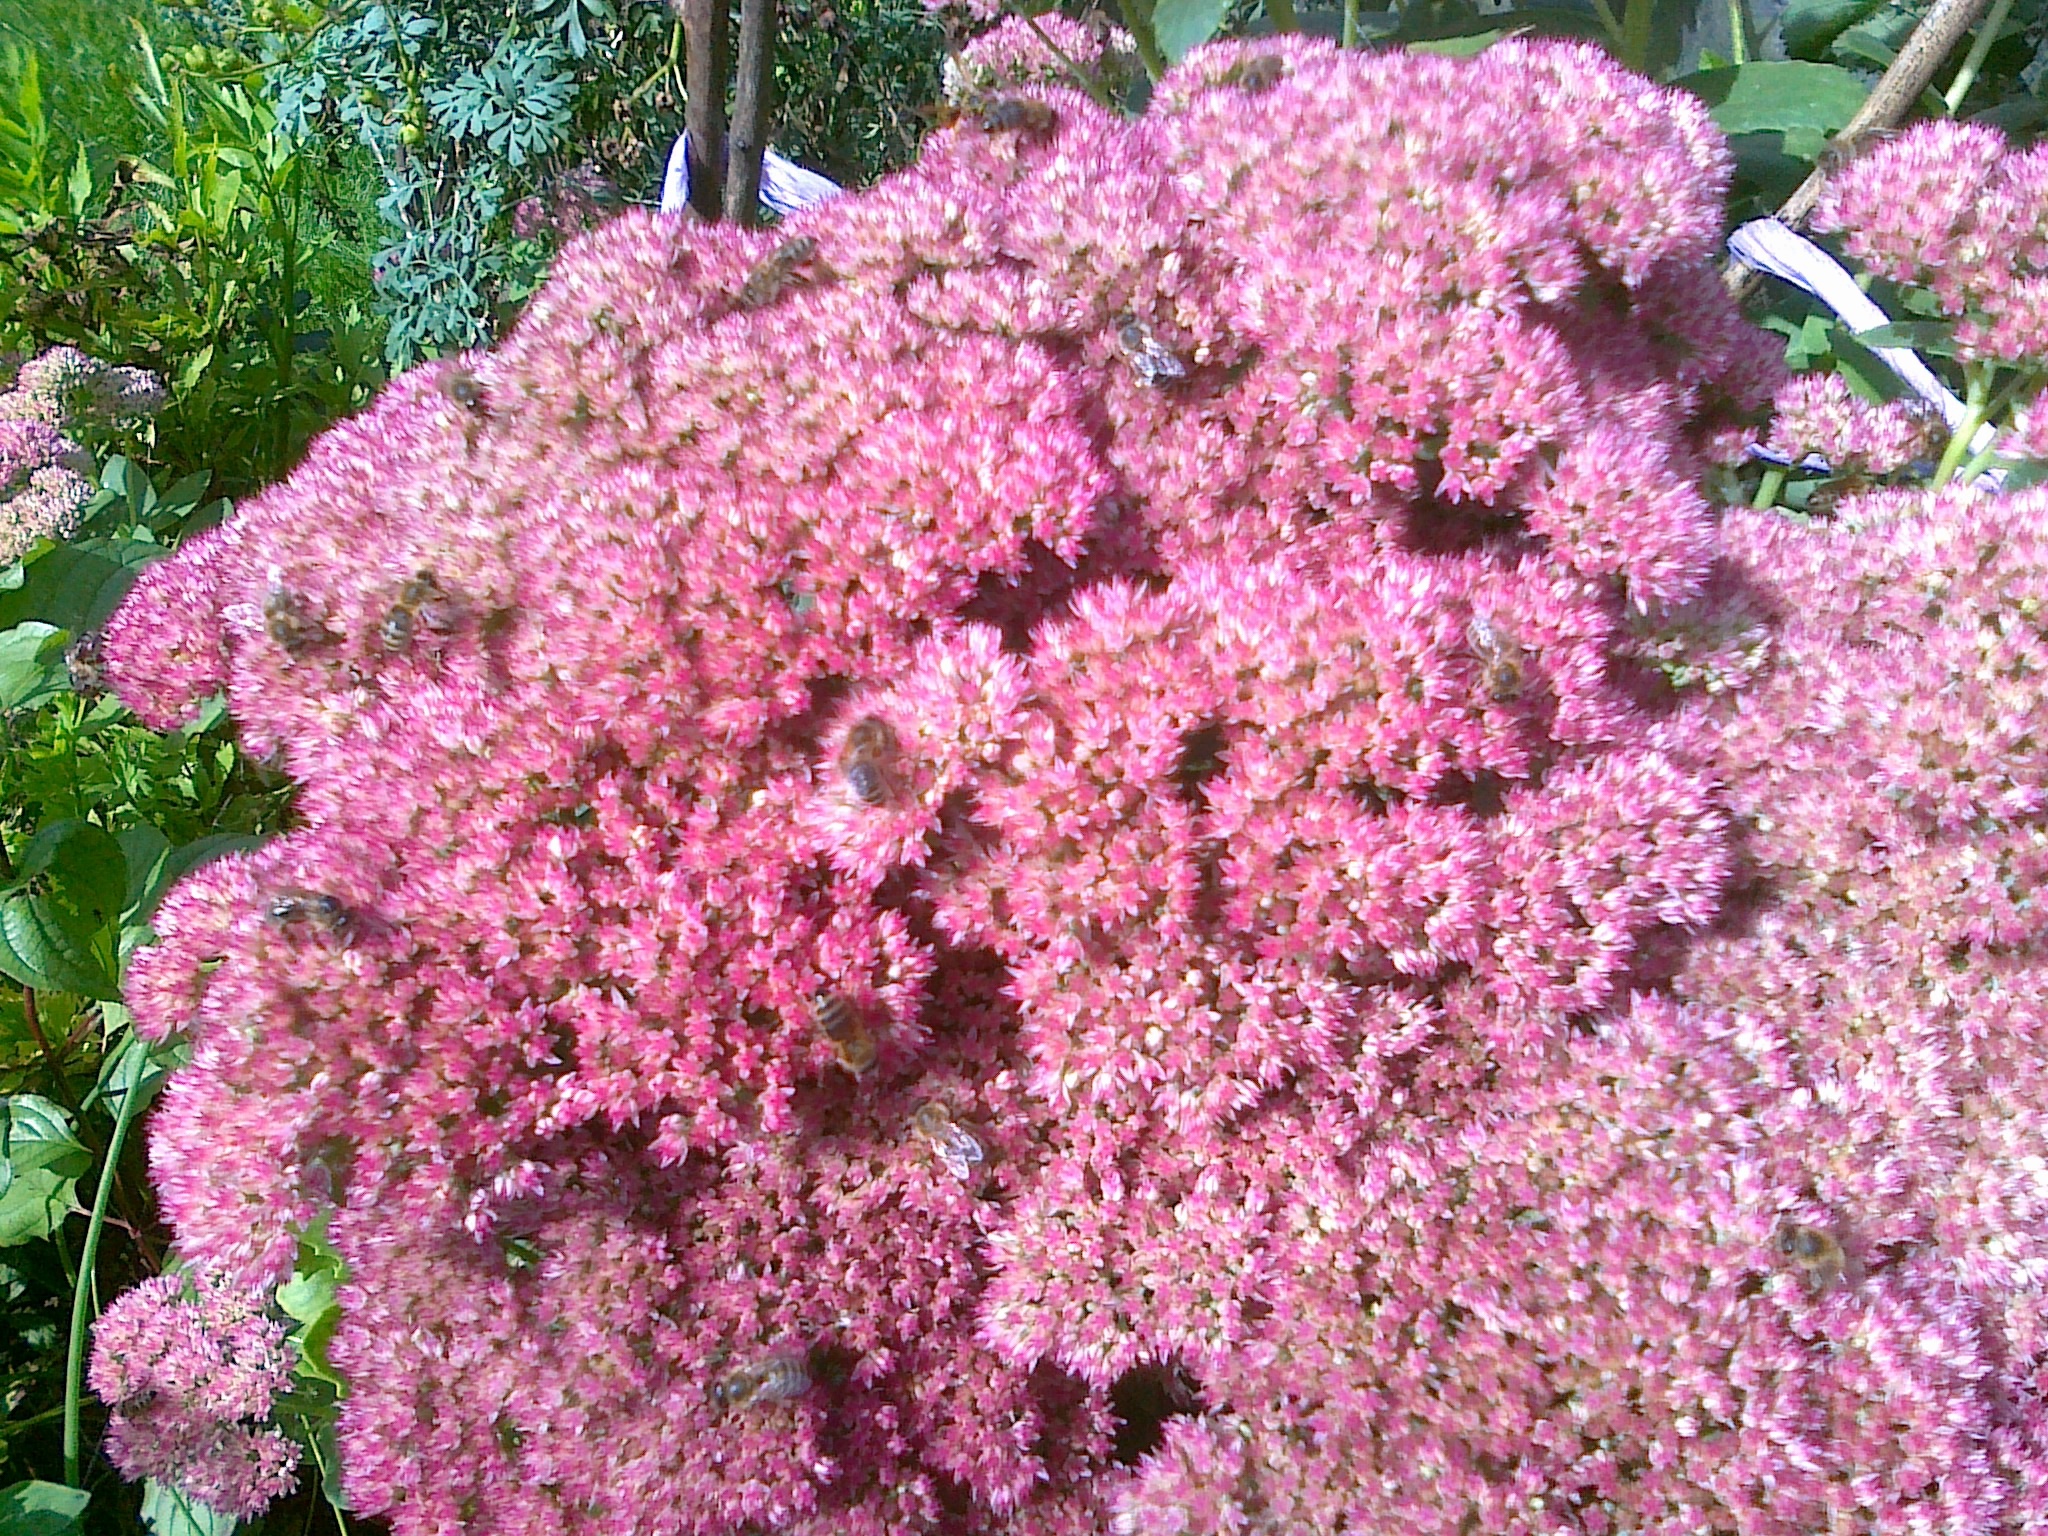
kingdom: Animalia
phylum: Arthropoda
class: Insecta
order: Hymenoptera
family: Apidae
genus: Apis
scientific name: Apis mellifera
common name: Honey bee
